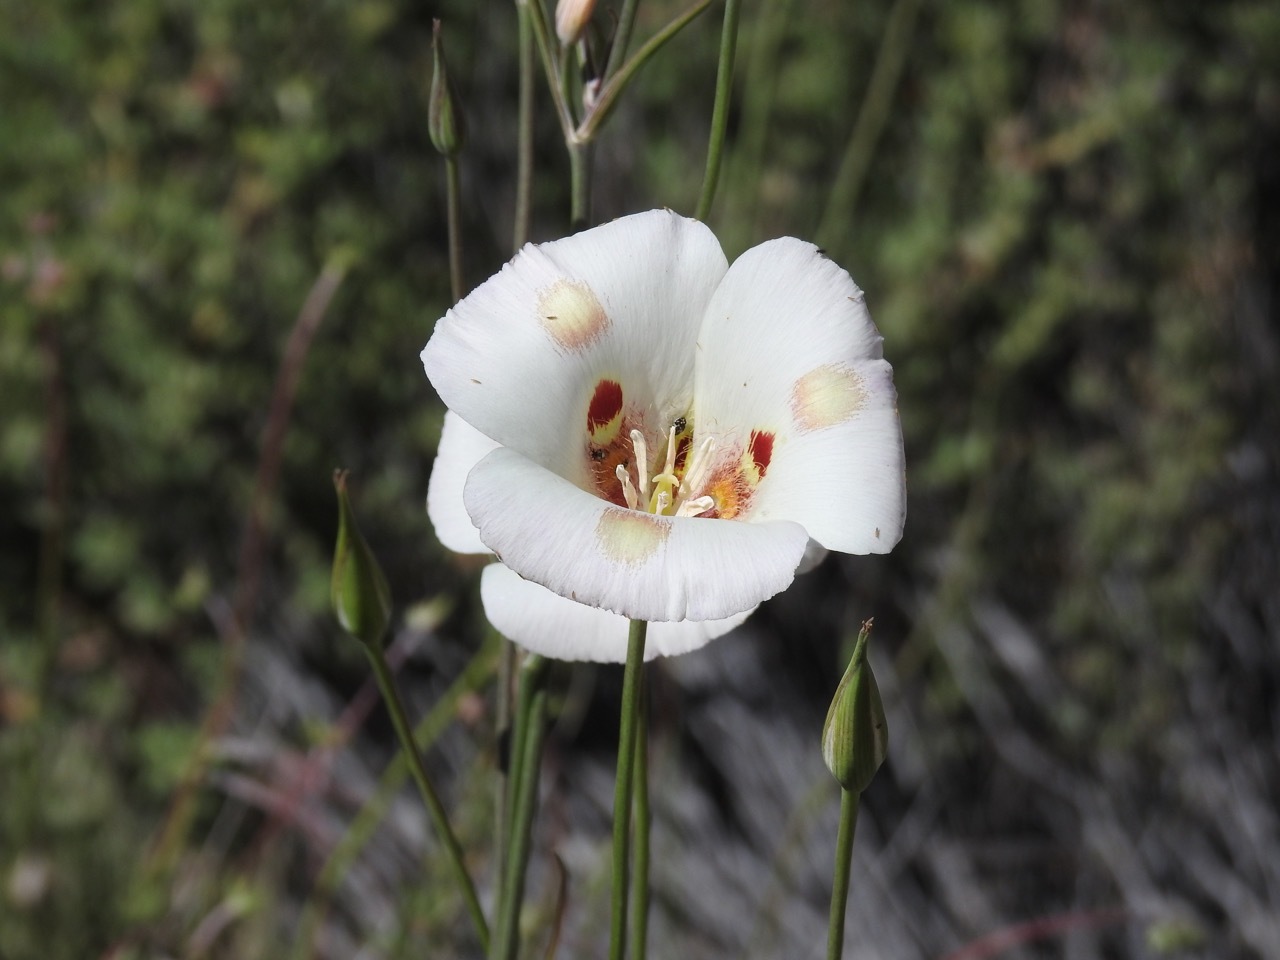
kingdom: Plantae
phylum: Tracheophyta
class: Liliopsida
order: Liliales
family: Liliaceae
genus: Calochortus
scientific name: Calochortus venustus
